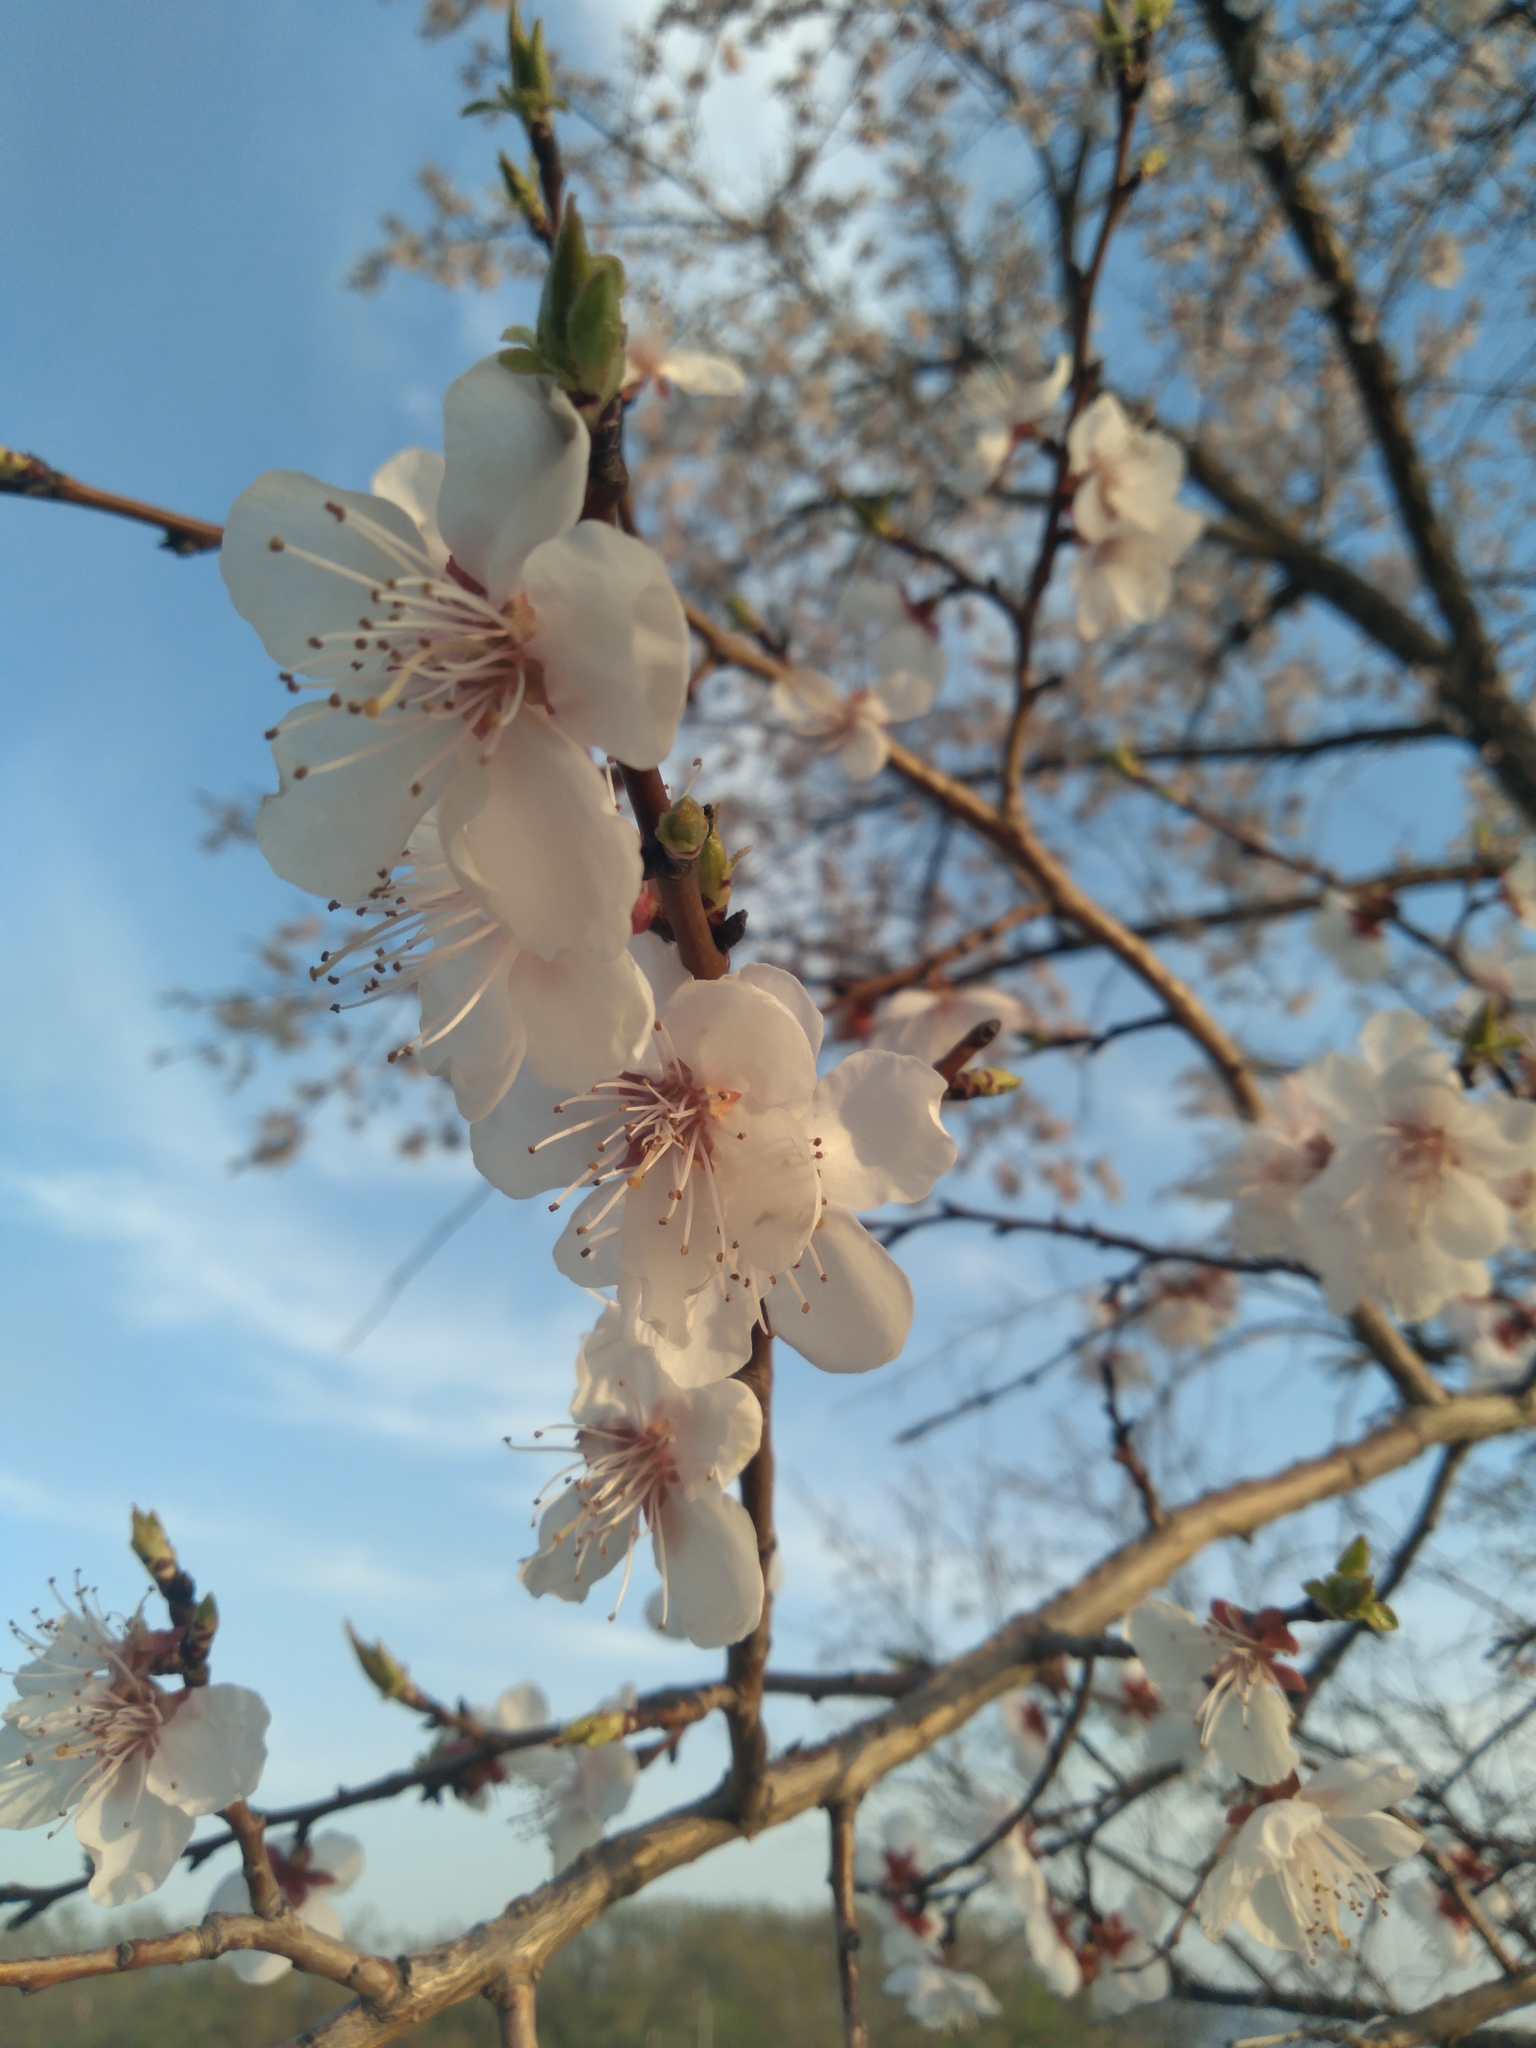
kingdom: Plantae
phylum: Tracheophyta
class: Magnoliopsida
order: Rosales
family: Rosaceae
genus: Prunus
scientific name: Prunus mandshurica
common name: Manchurian apricot
